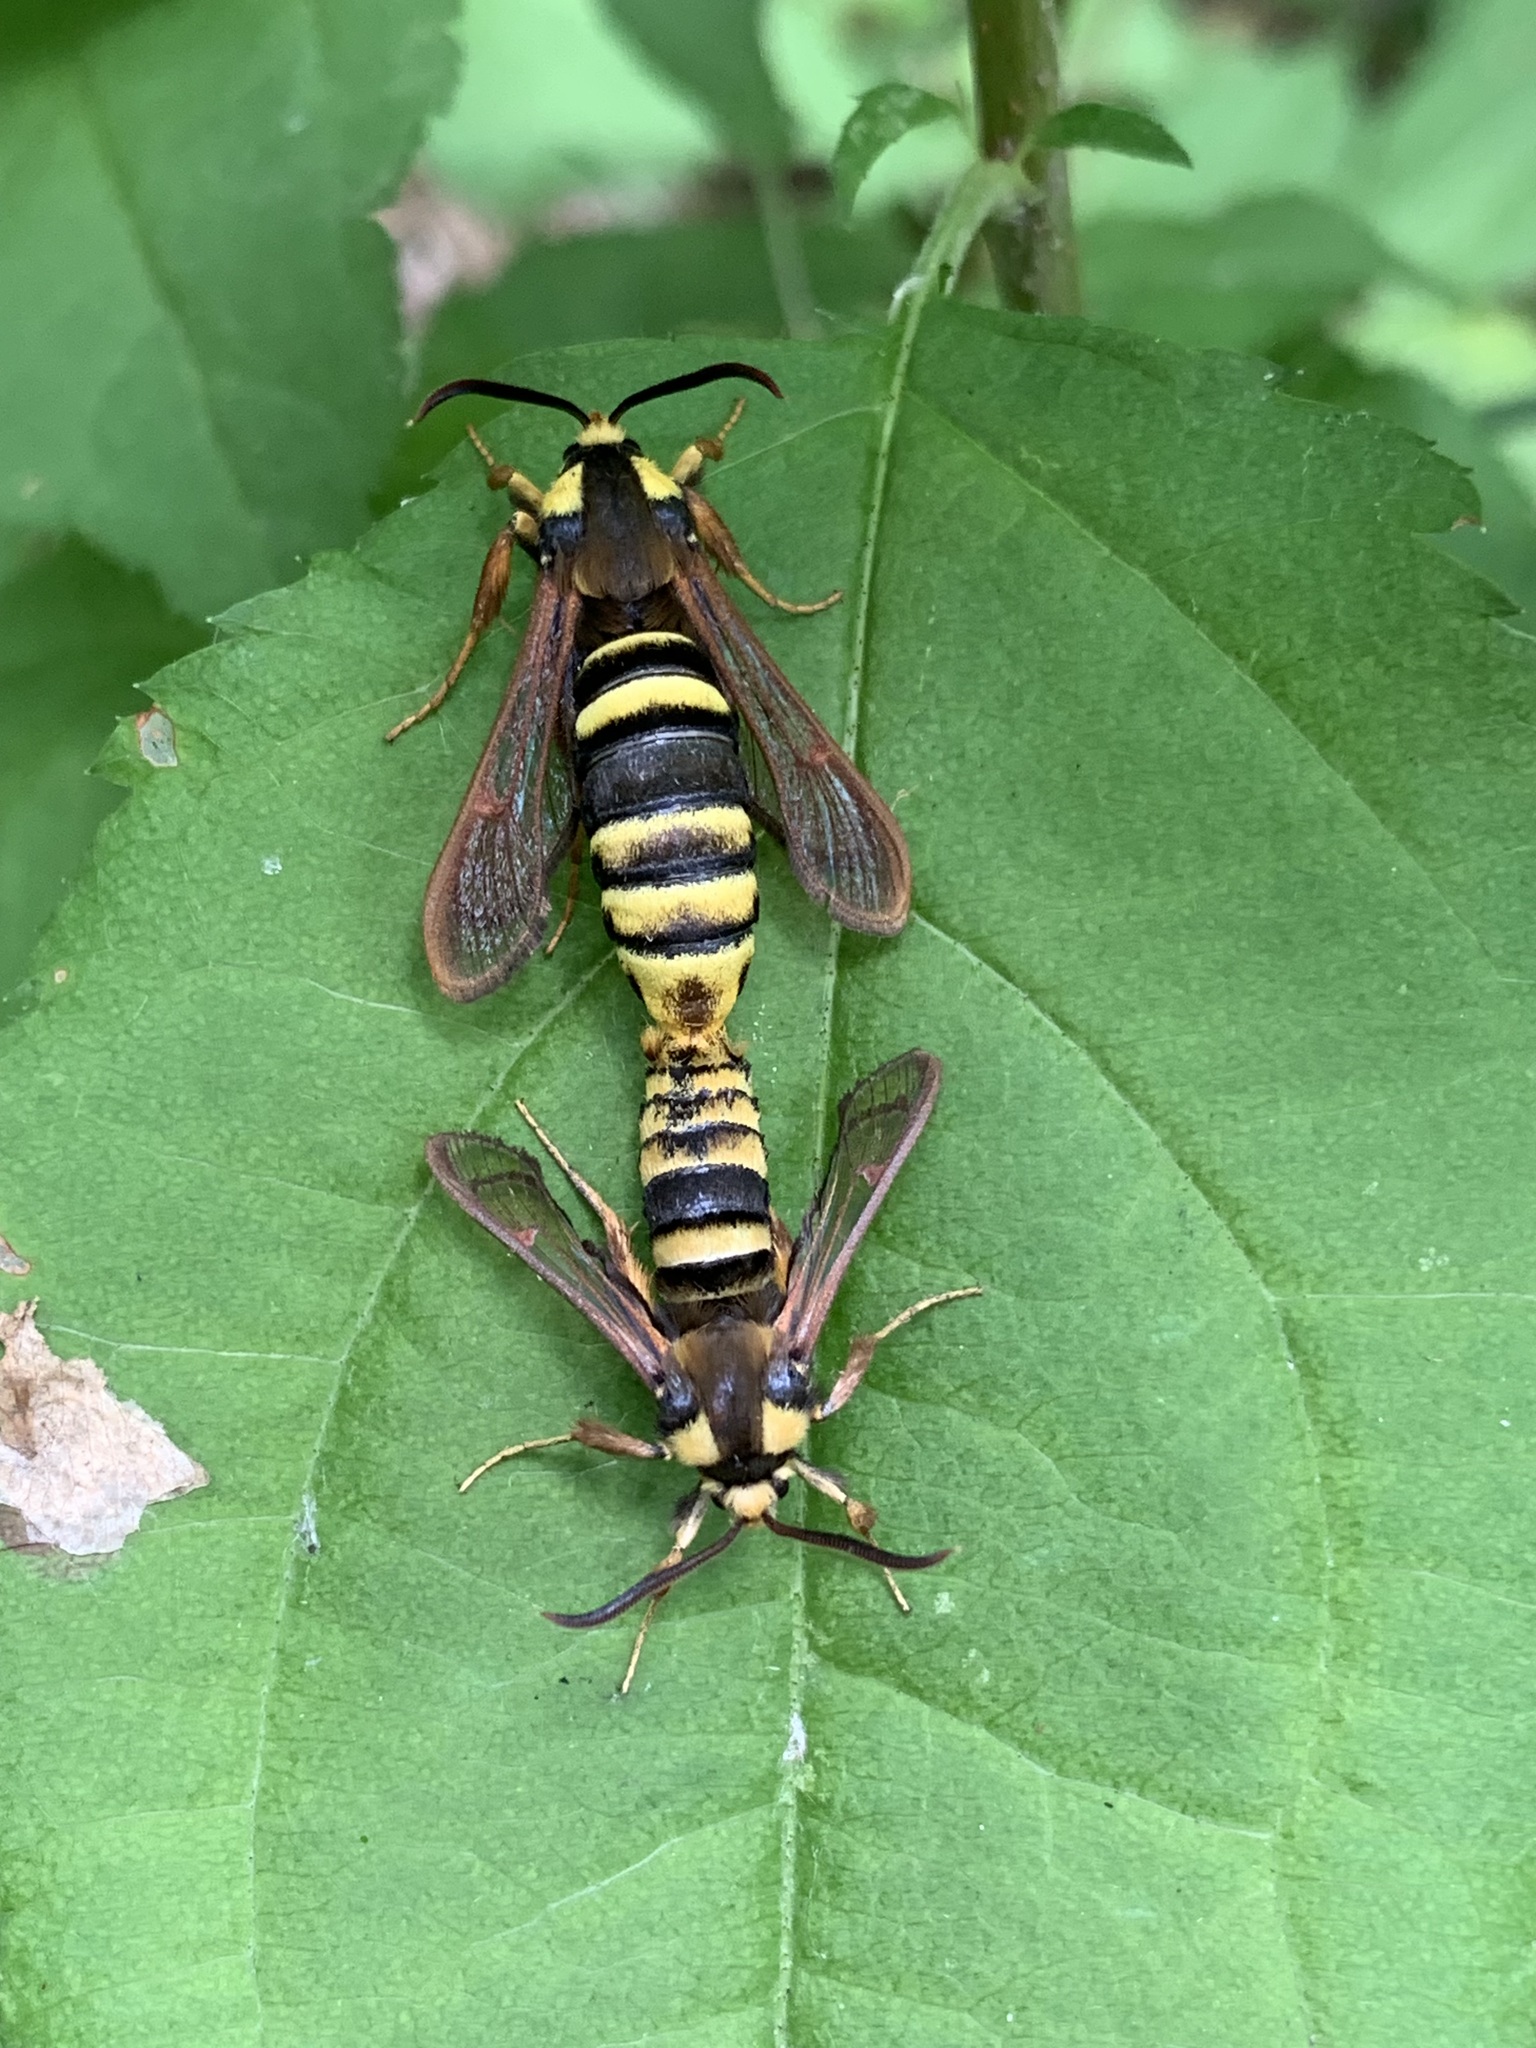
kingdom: Animalia
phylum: Arthropoda
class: Insecta
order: Lepidoptera
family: Sesiidae
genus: Sesia
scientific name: Sesia apiformis
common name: Hornet moth
